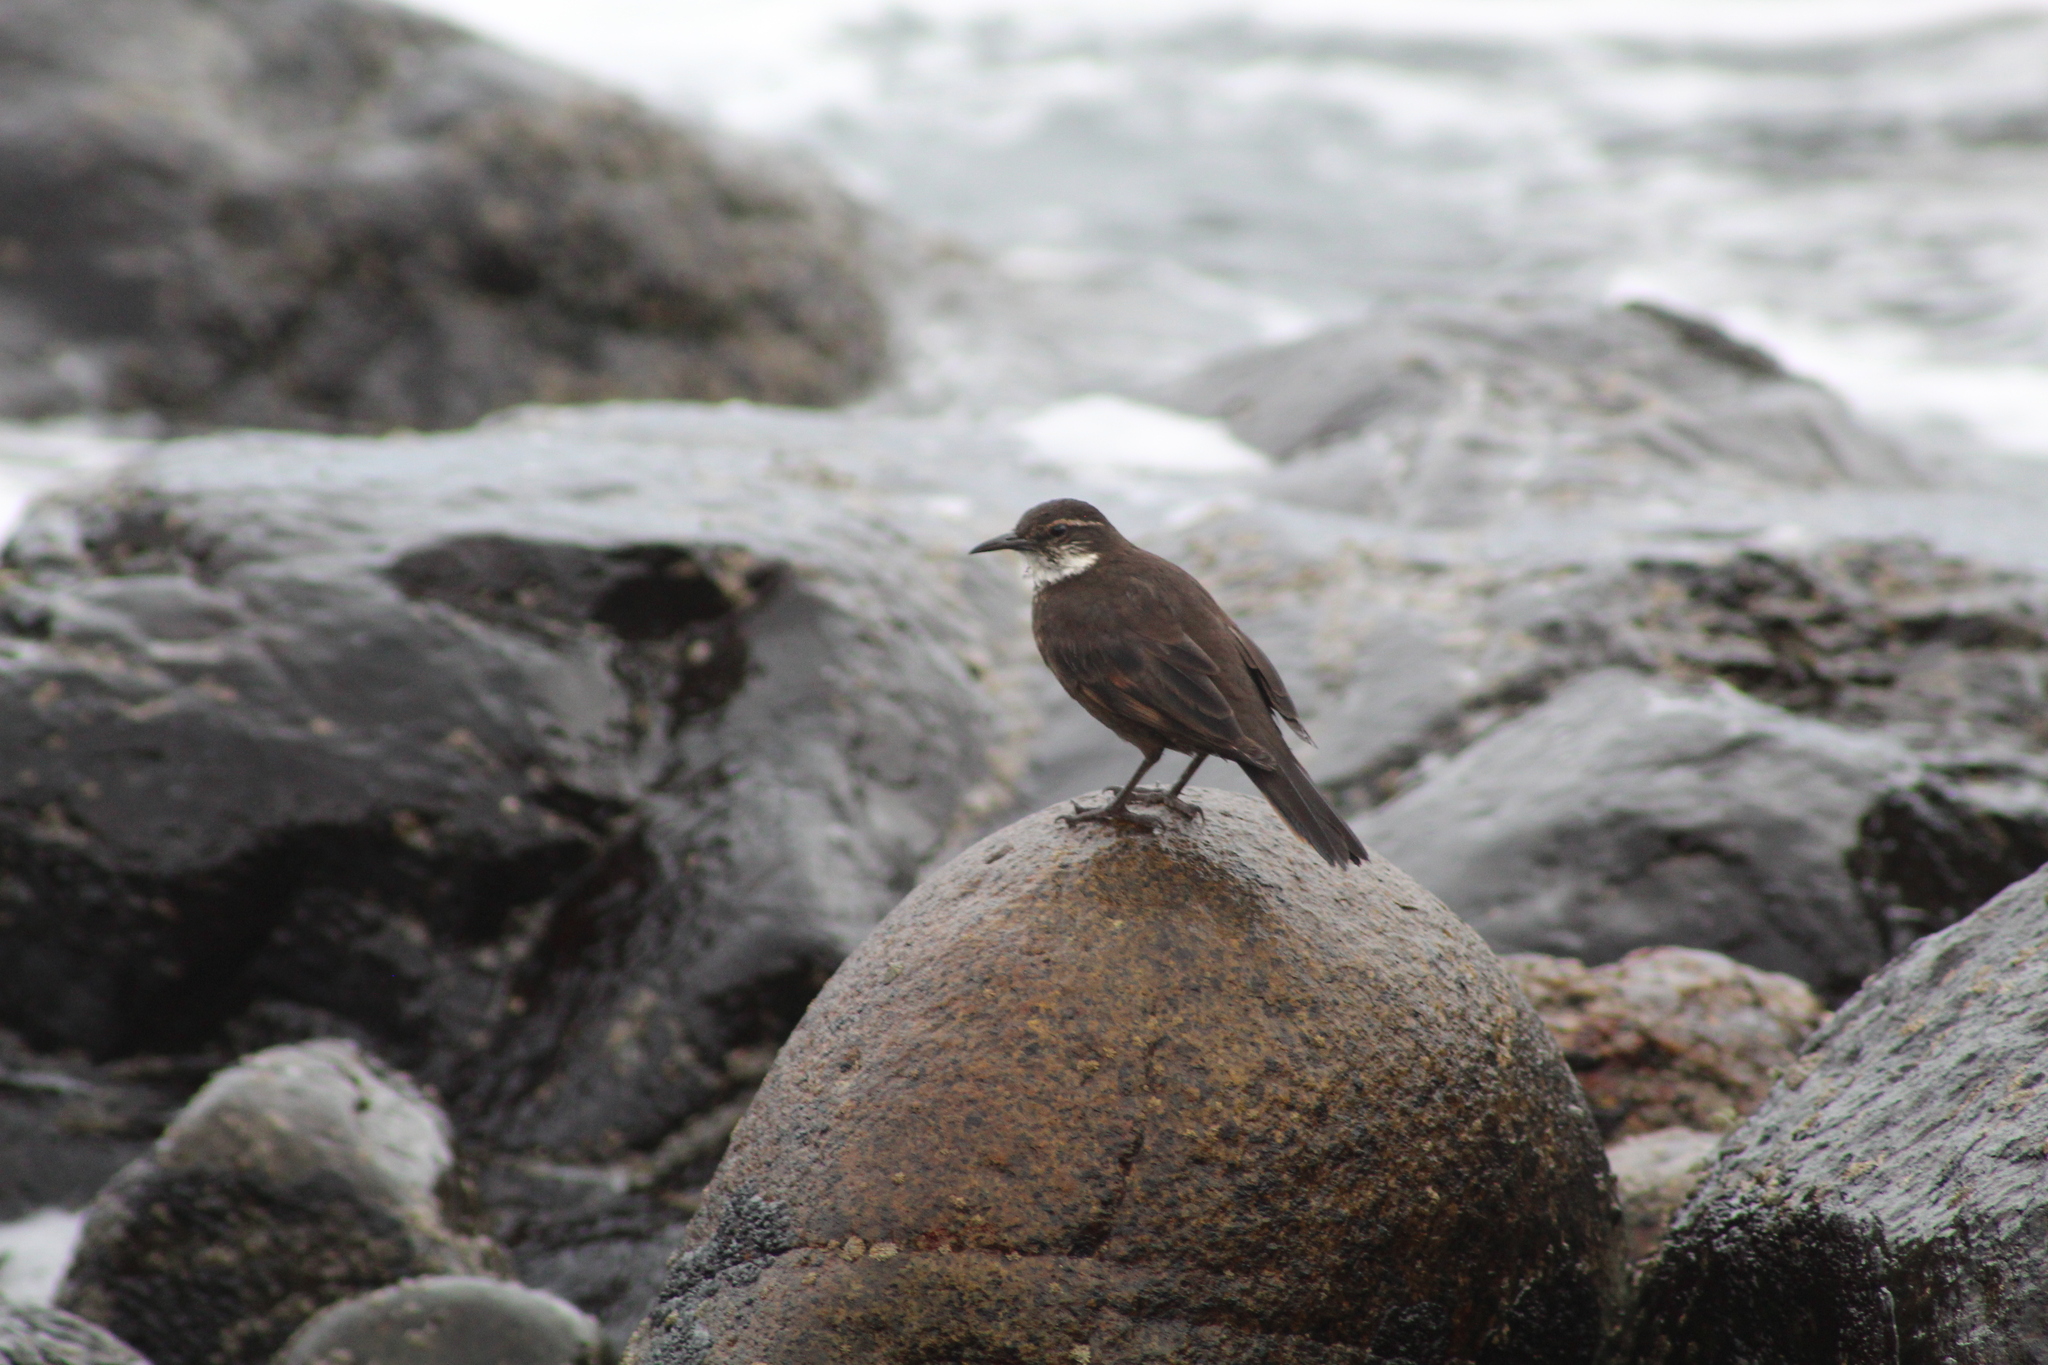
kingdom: Animalia
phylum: Chordata
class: Aves
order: Passeriformes
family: Furnariidae
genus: Cinclodes
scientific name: Cinclodes nigrofumosus
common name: Chilean seaside cinclodes
